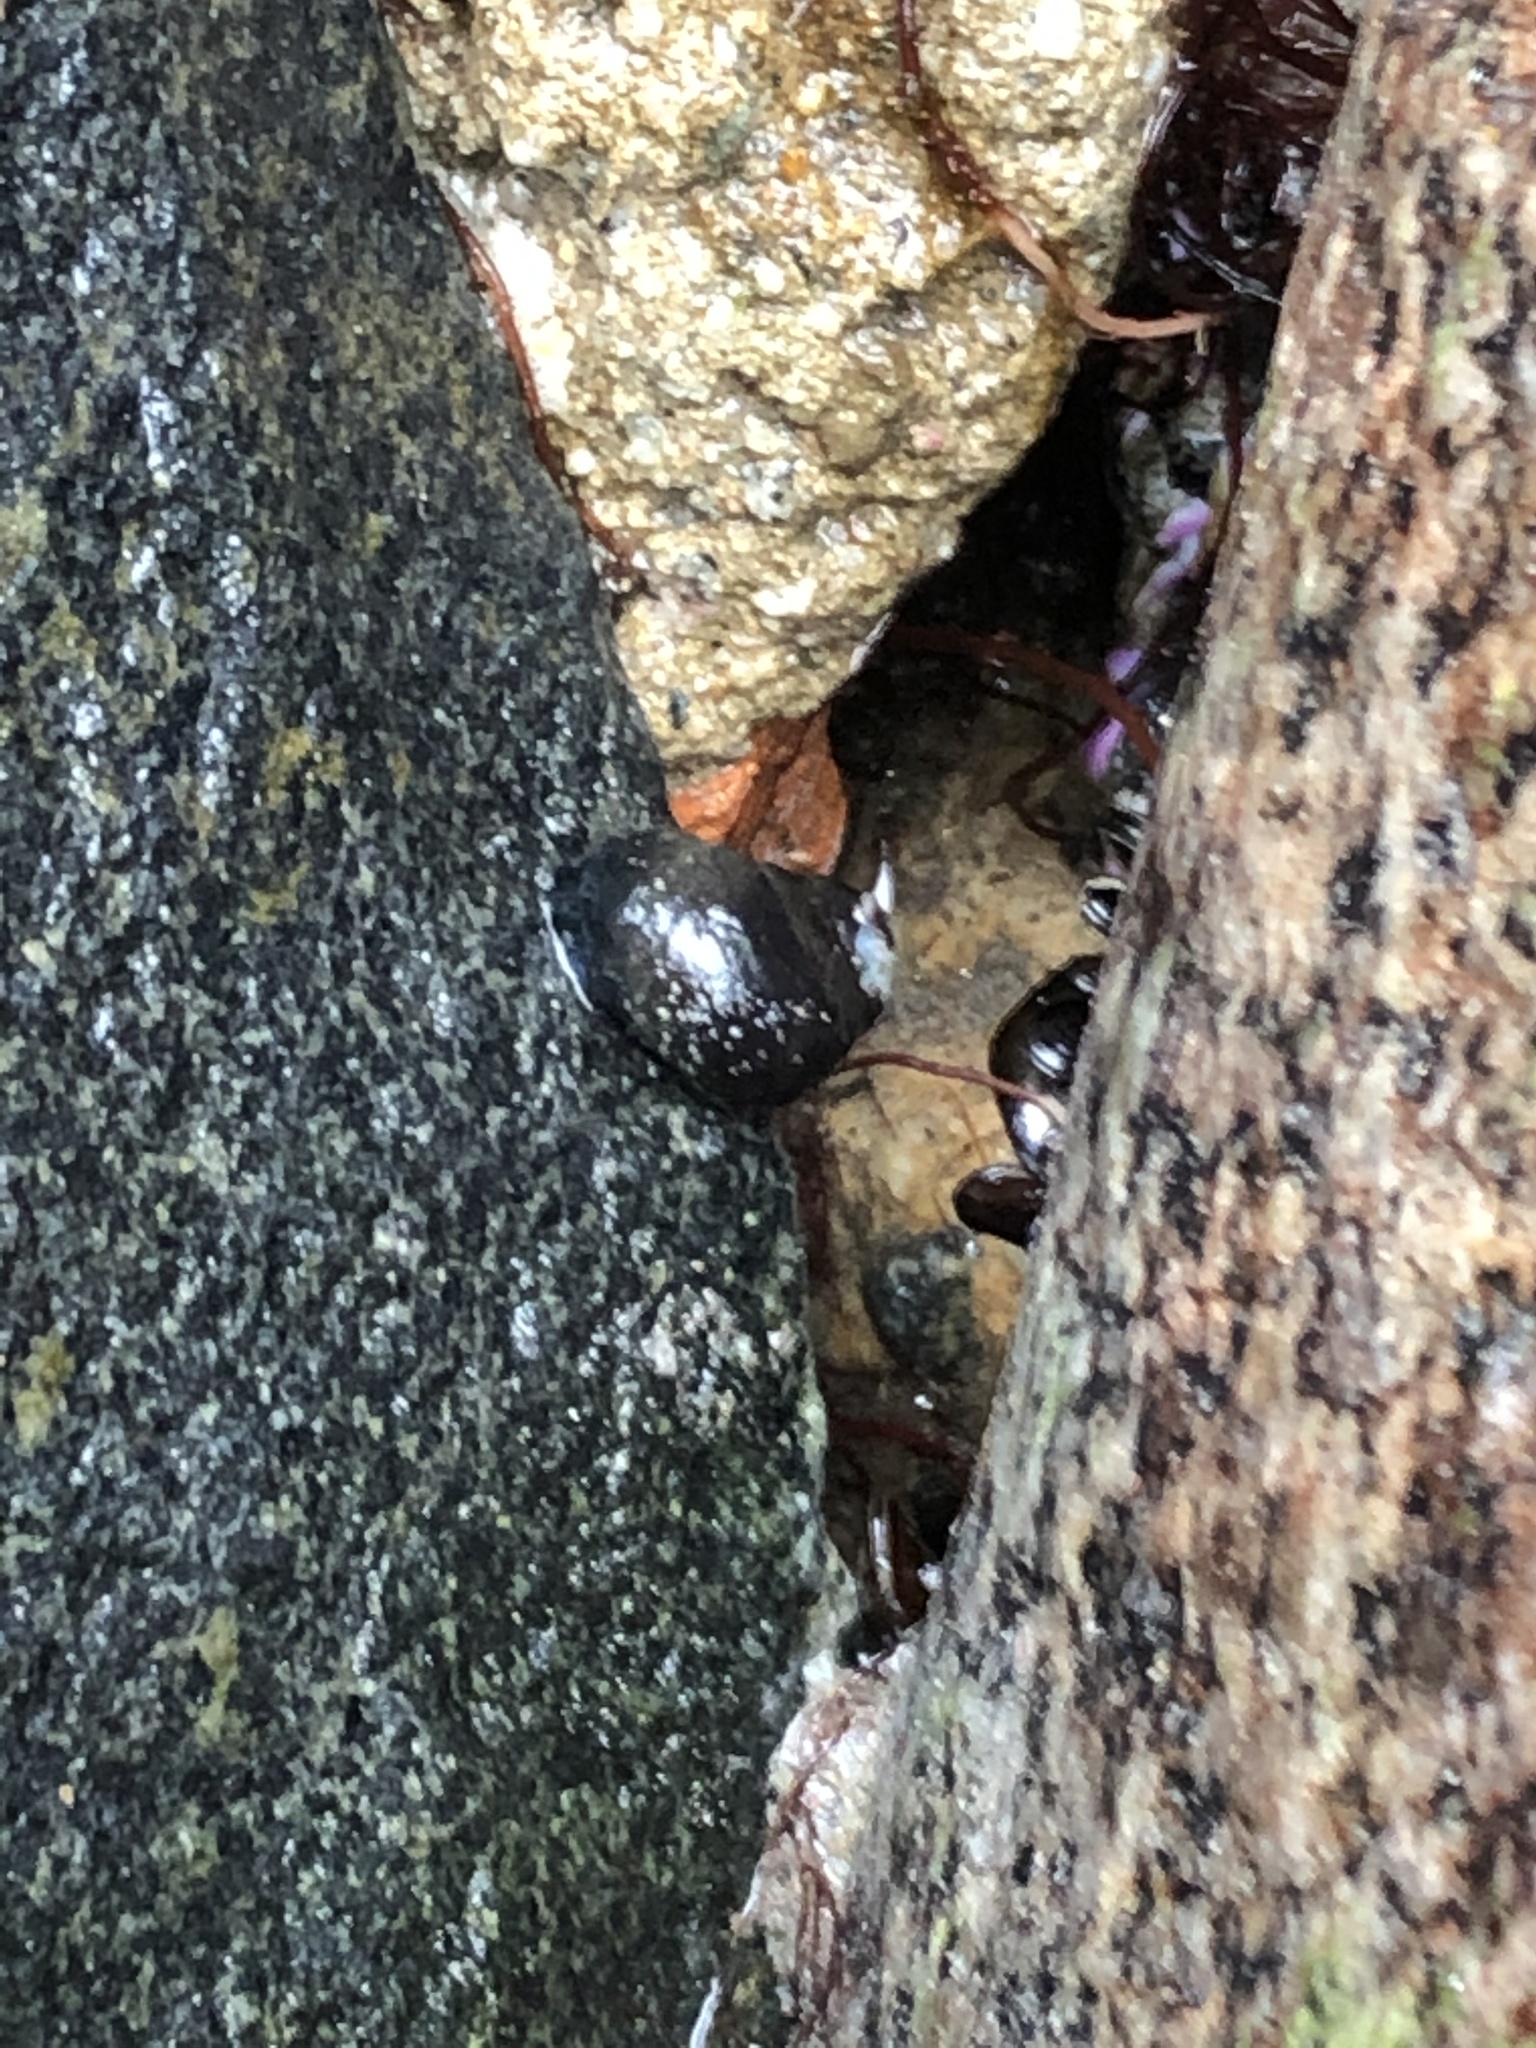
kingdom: Animalia
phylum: Mollusca
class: Gastropoda
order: Trochida
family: Turbinidae
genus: Prisogaster
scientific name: Prisogaster niger
